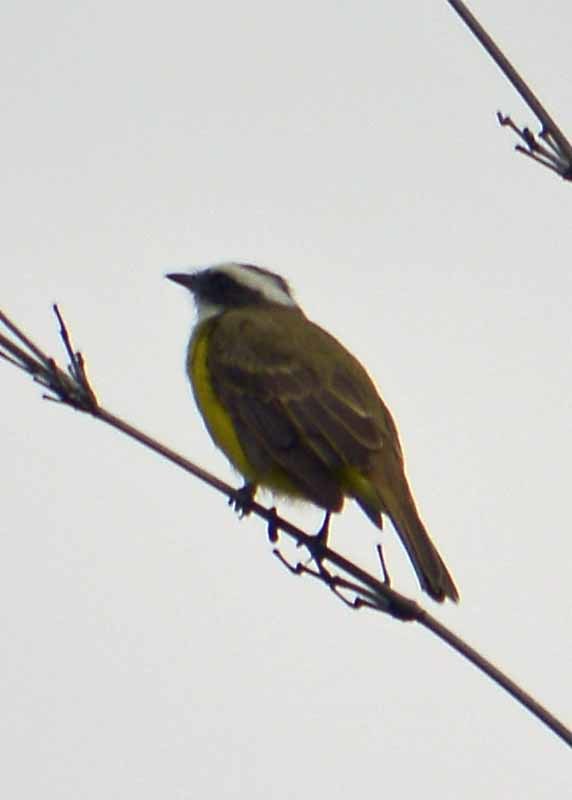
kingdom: Animalia
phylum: Chordata
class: Aves
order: Passeriformes
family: Tyrannidae
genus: Myiozetetes
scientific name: Myiozetetes similis
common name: Social flycatcher
